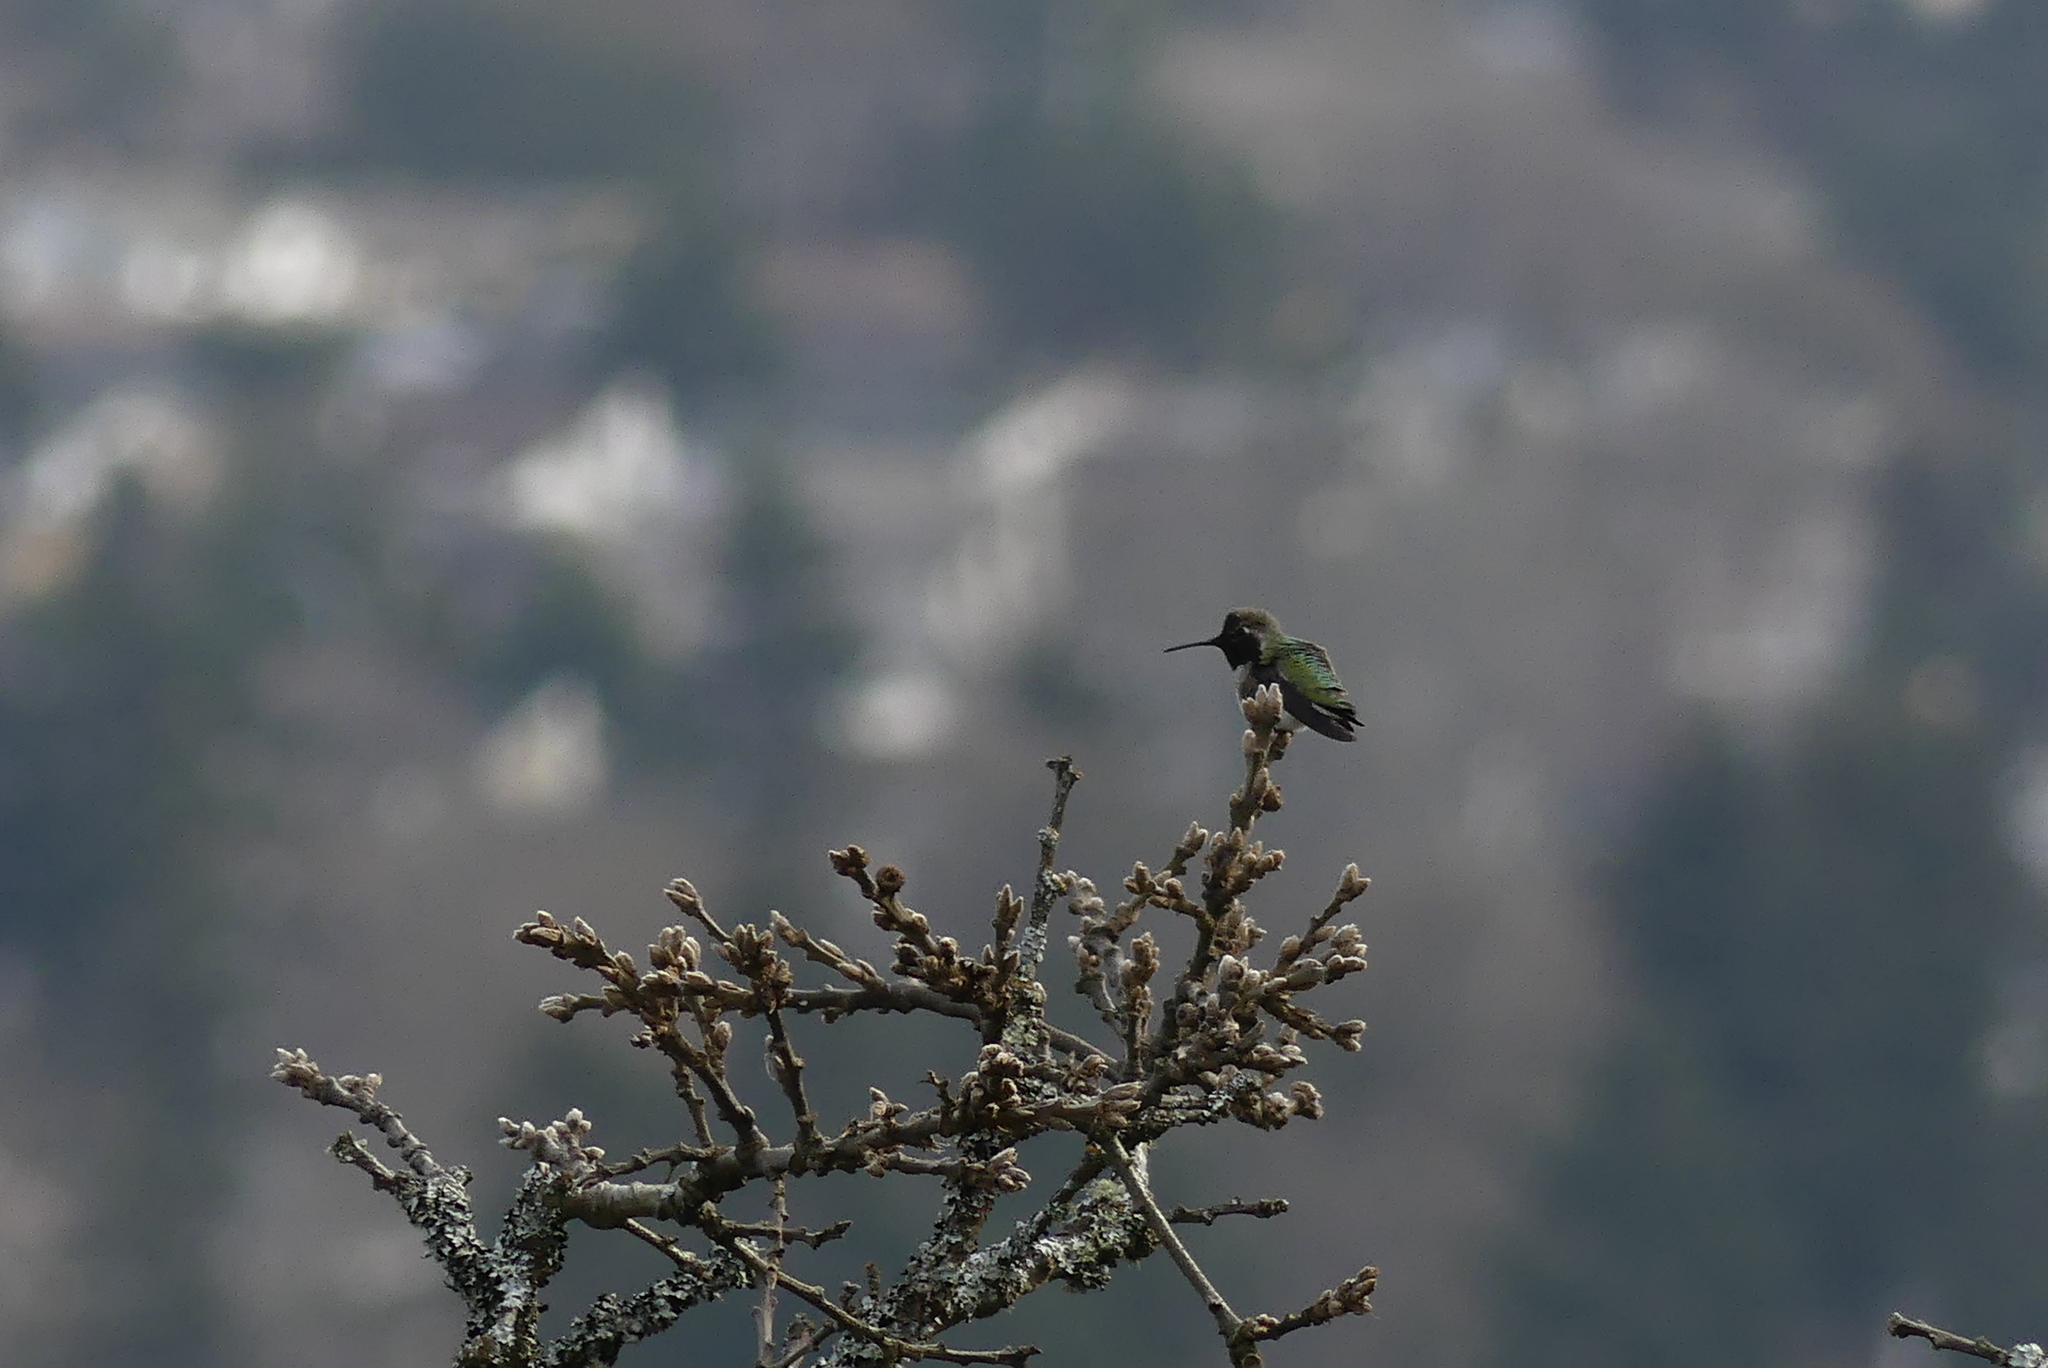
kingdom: Animalia
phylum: Chordata
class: Aves
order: Apodiformes
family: Trochilidae
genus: Calypte
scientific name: Calypte anna
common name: Anna's hummingbird
